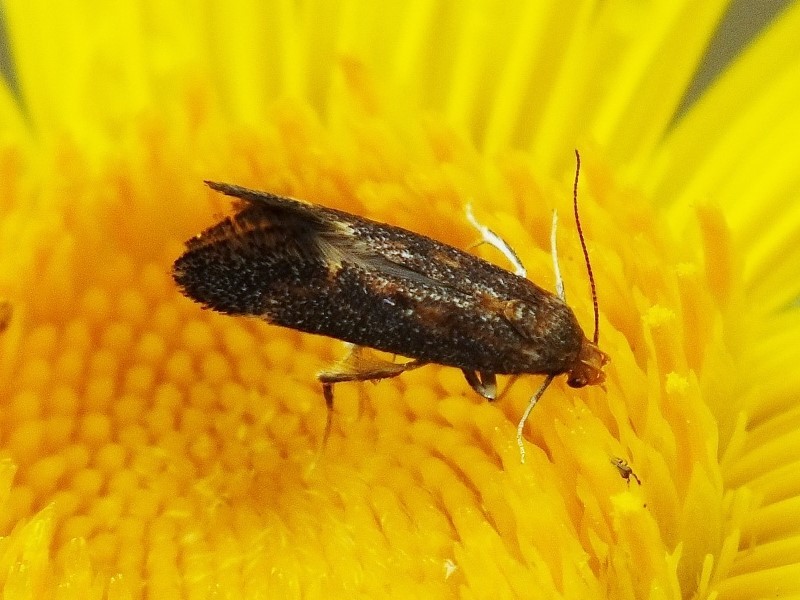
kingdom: Animalia
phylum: Arthropoda
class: Insecta
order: Lepidoptera
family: Gelechiidae
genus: Apodia
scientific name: Apodia bifractella
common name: Dark fleabane neb
